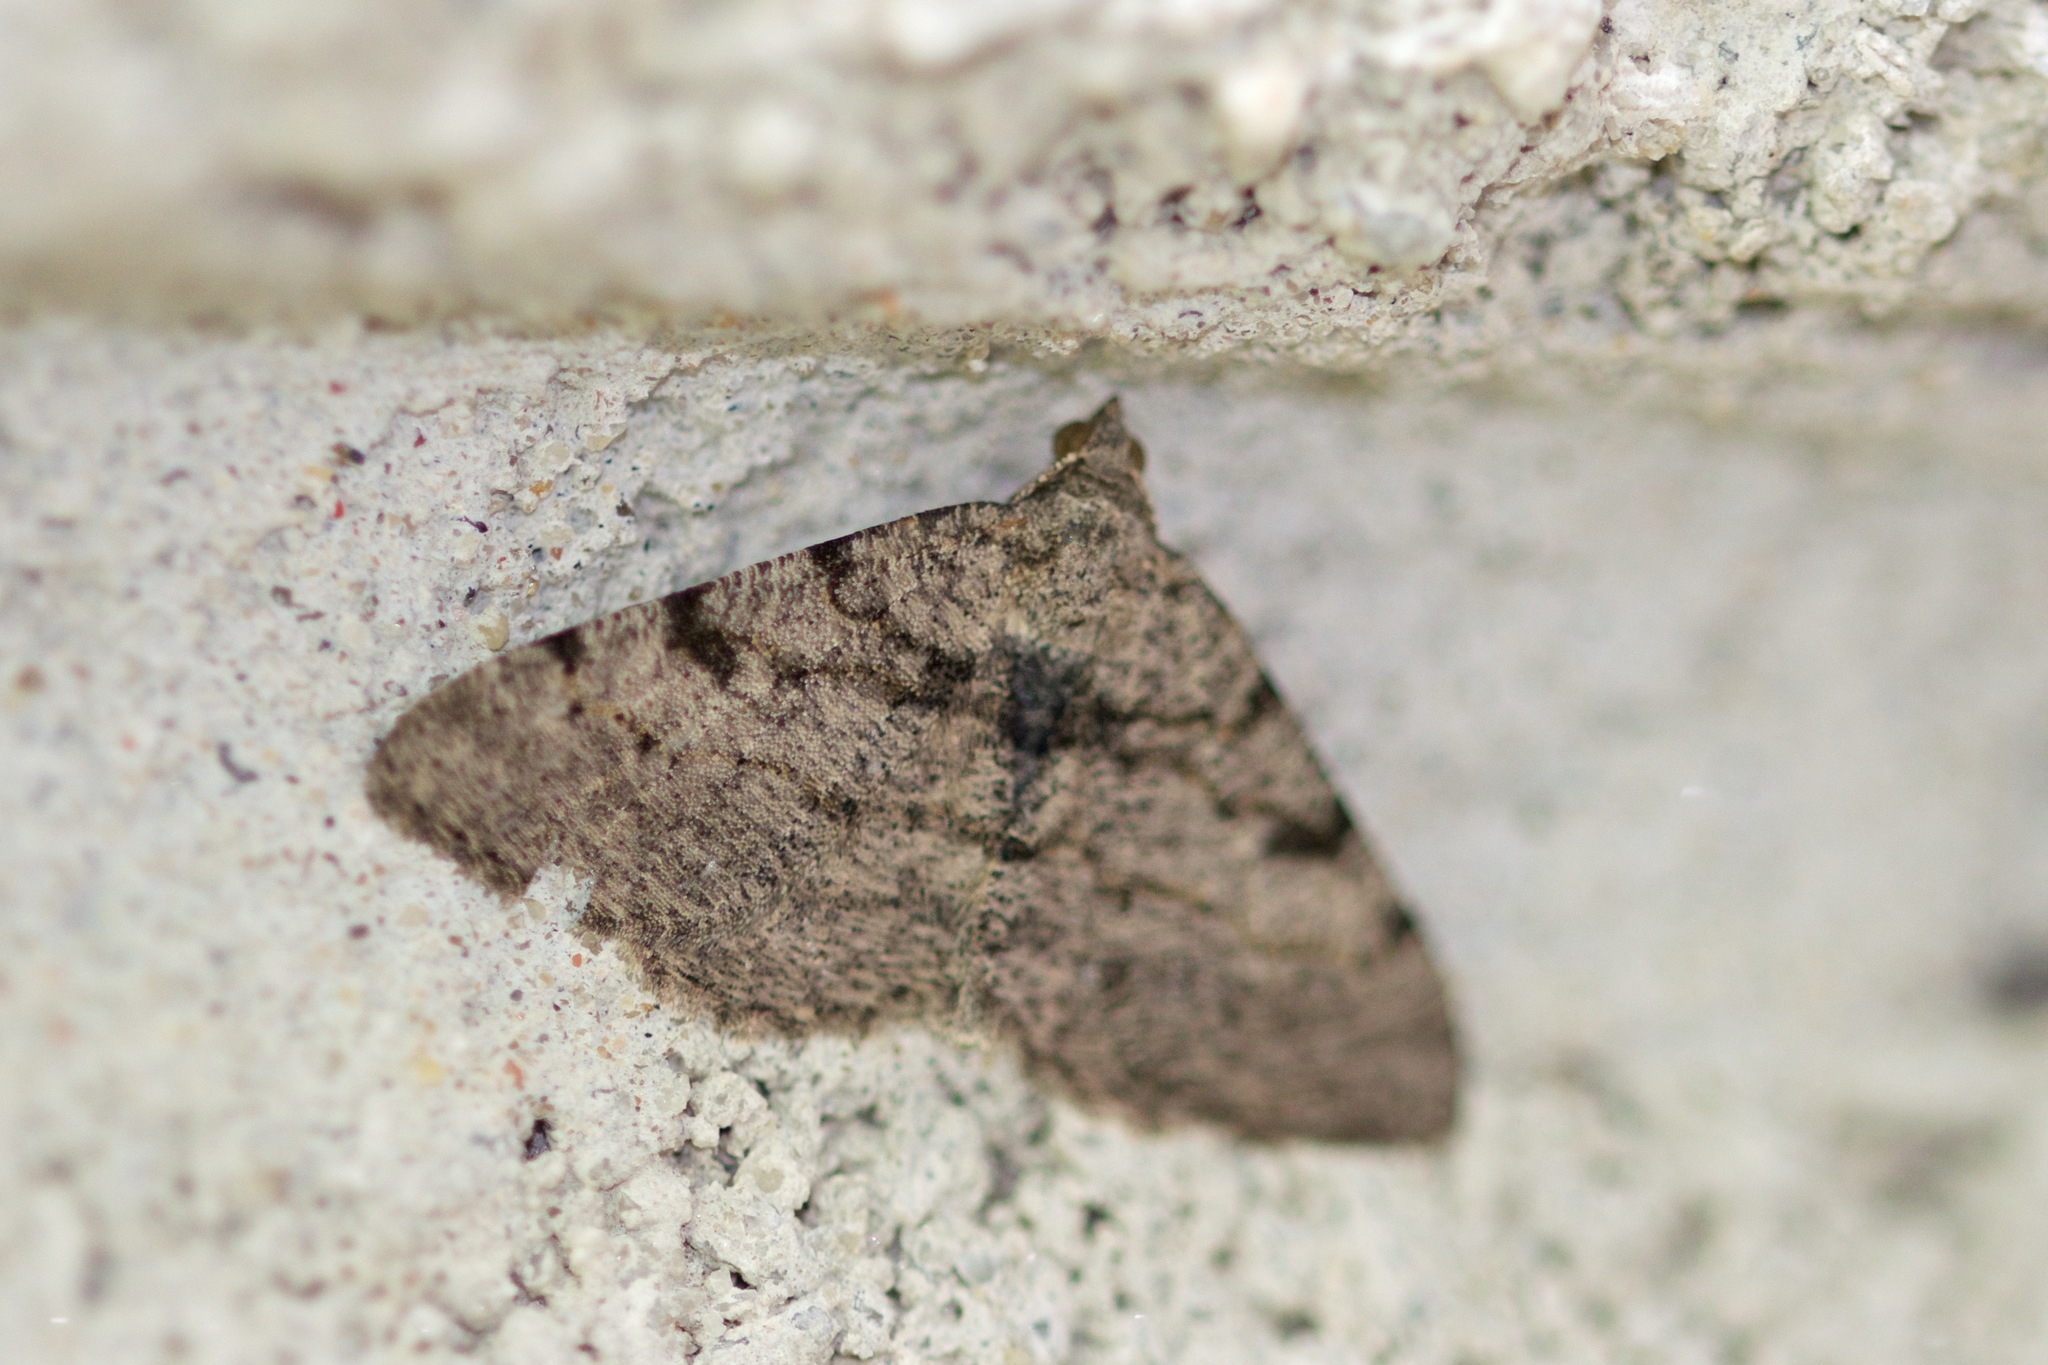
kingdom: Animalia
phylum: Arthropoda
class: Insecta
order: Lepidoptera
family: Geometridae
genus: Digrammia
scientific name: Digrammia gnophosaria
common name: Hollow-spotted angle
